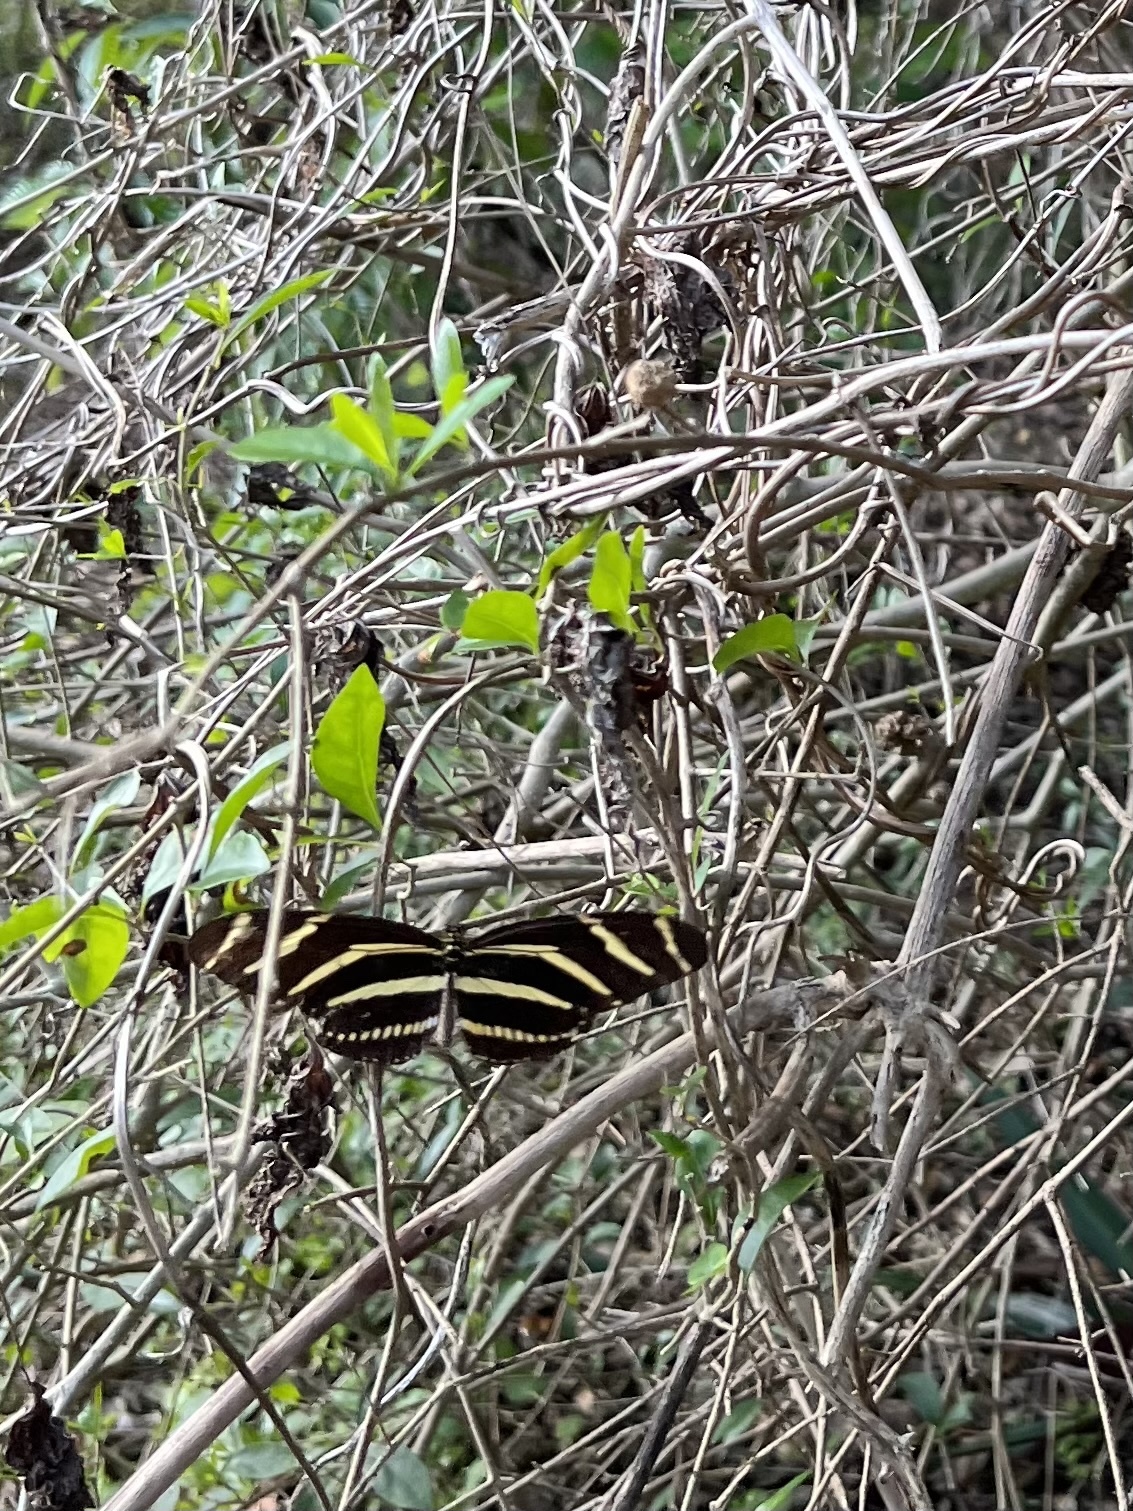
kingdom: Animalia
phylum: Arthropoda
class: Insecta
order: Lepidoptera
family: Nymphalidae
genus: Heliconius
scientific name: Heliconius charithonia
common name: Zebra long wing
